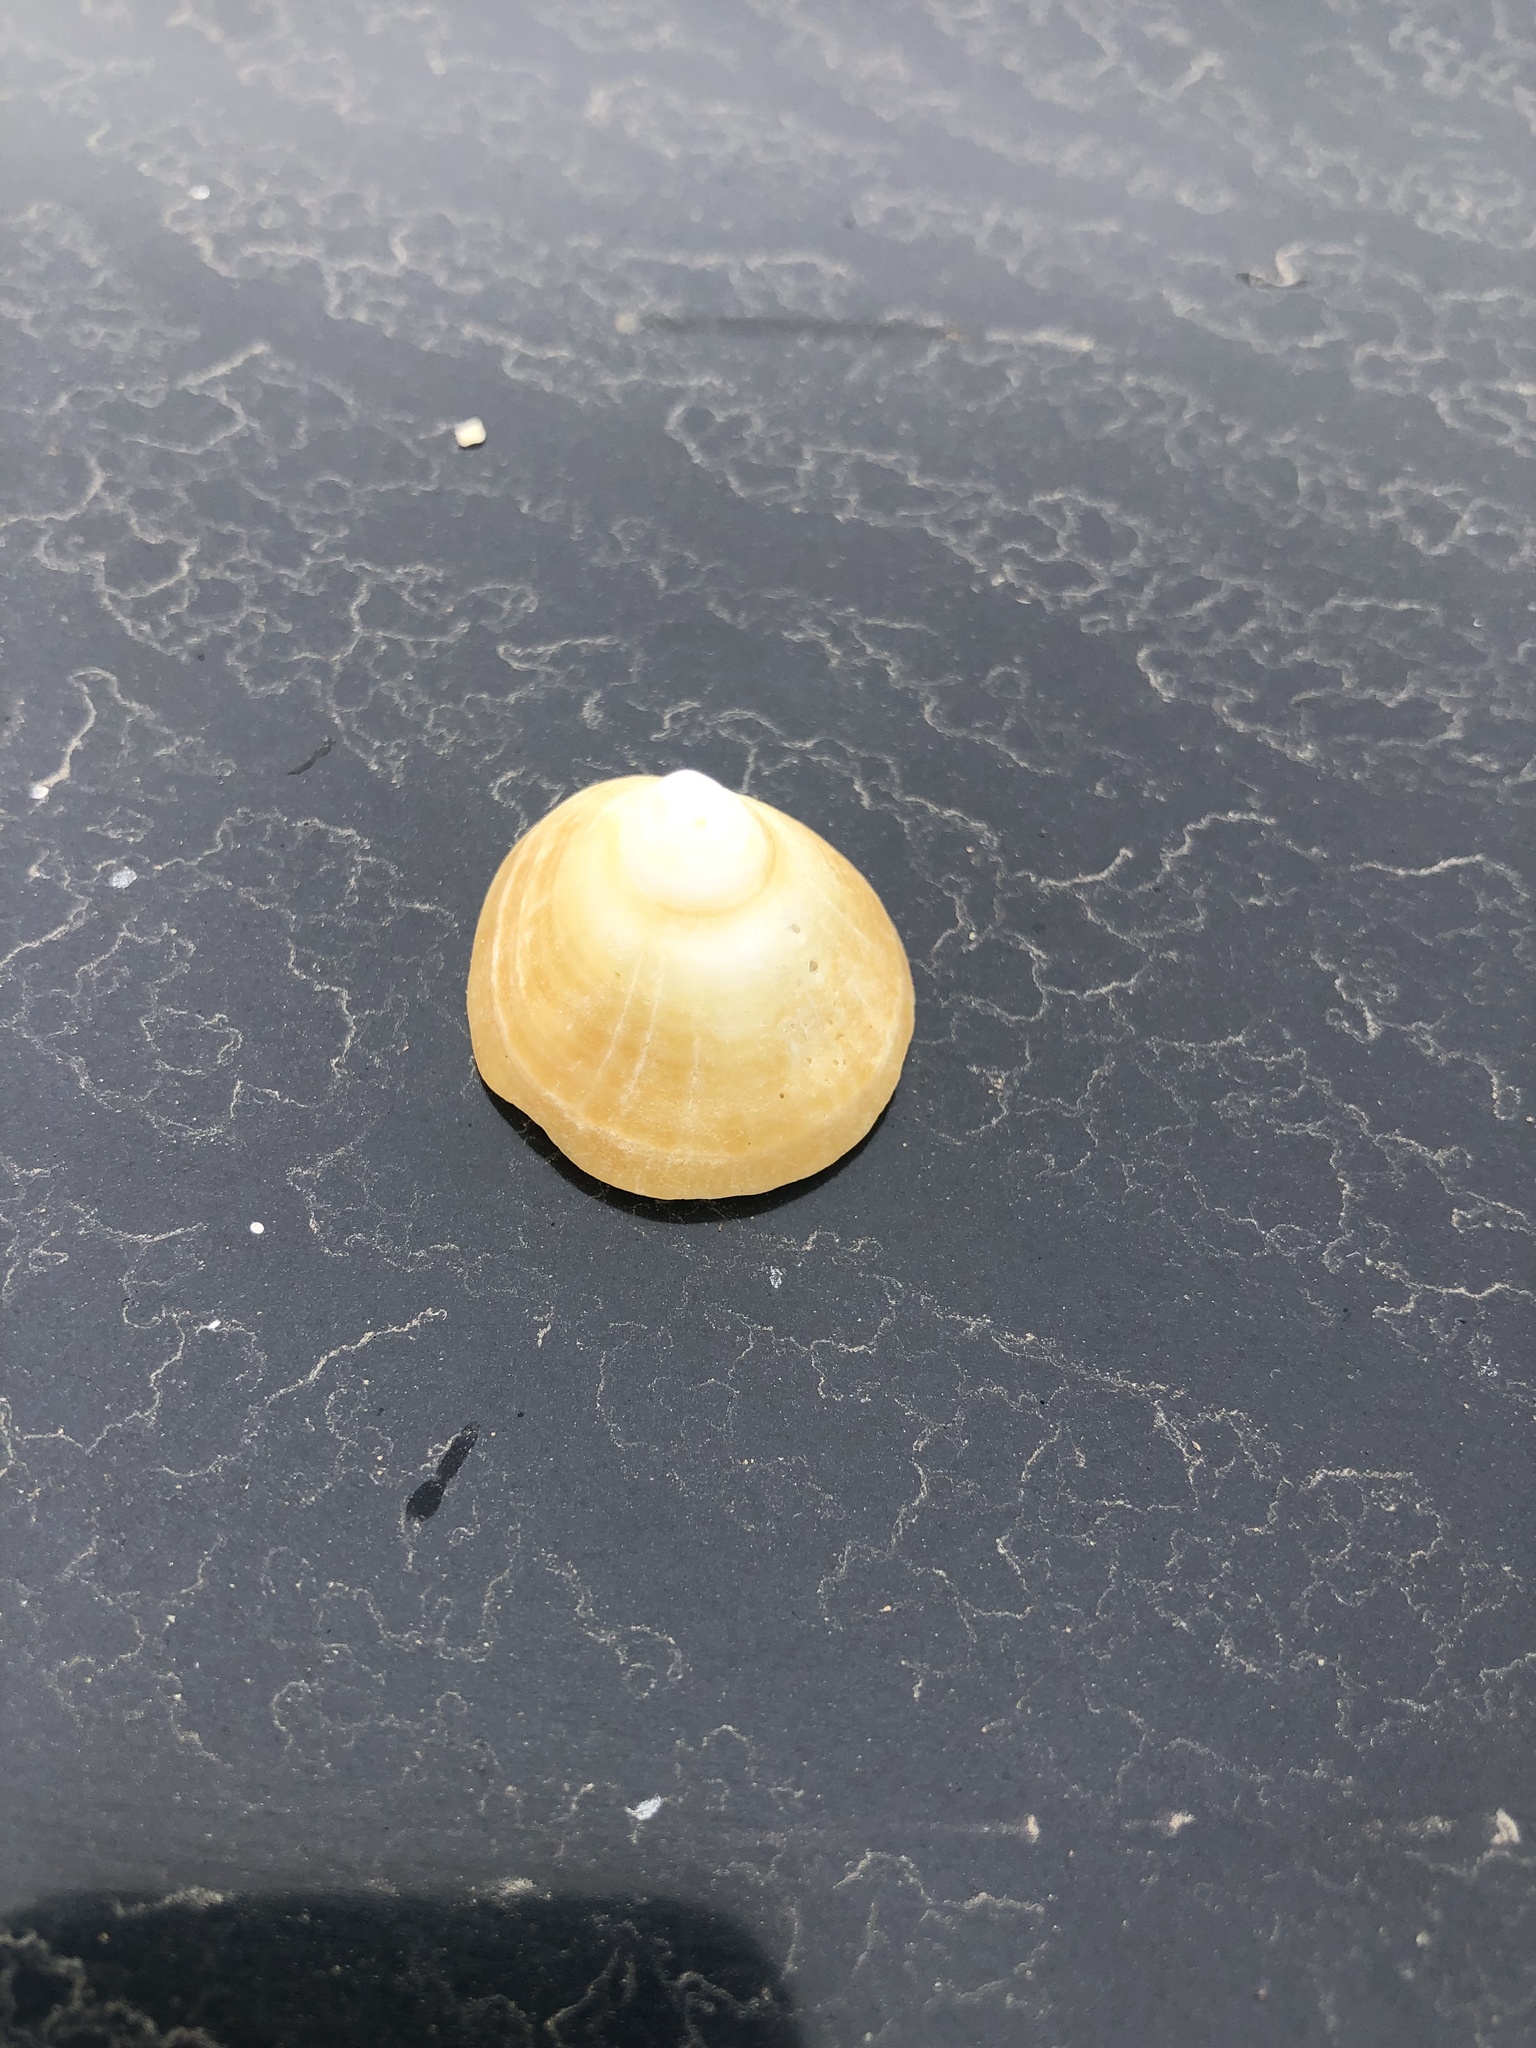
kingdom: Animalia
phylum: Mollusca
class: Gastropoda
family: Lottiidae
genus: Scurria
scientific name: Scurria scurra
